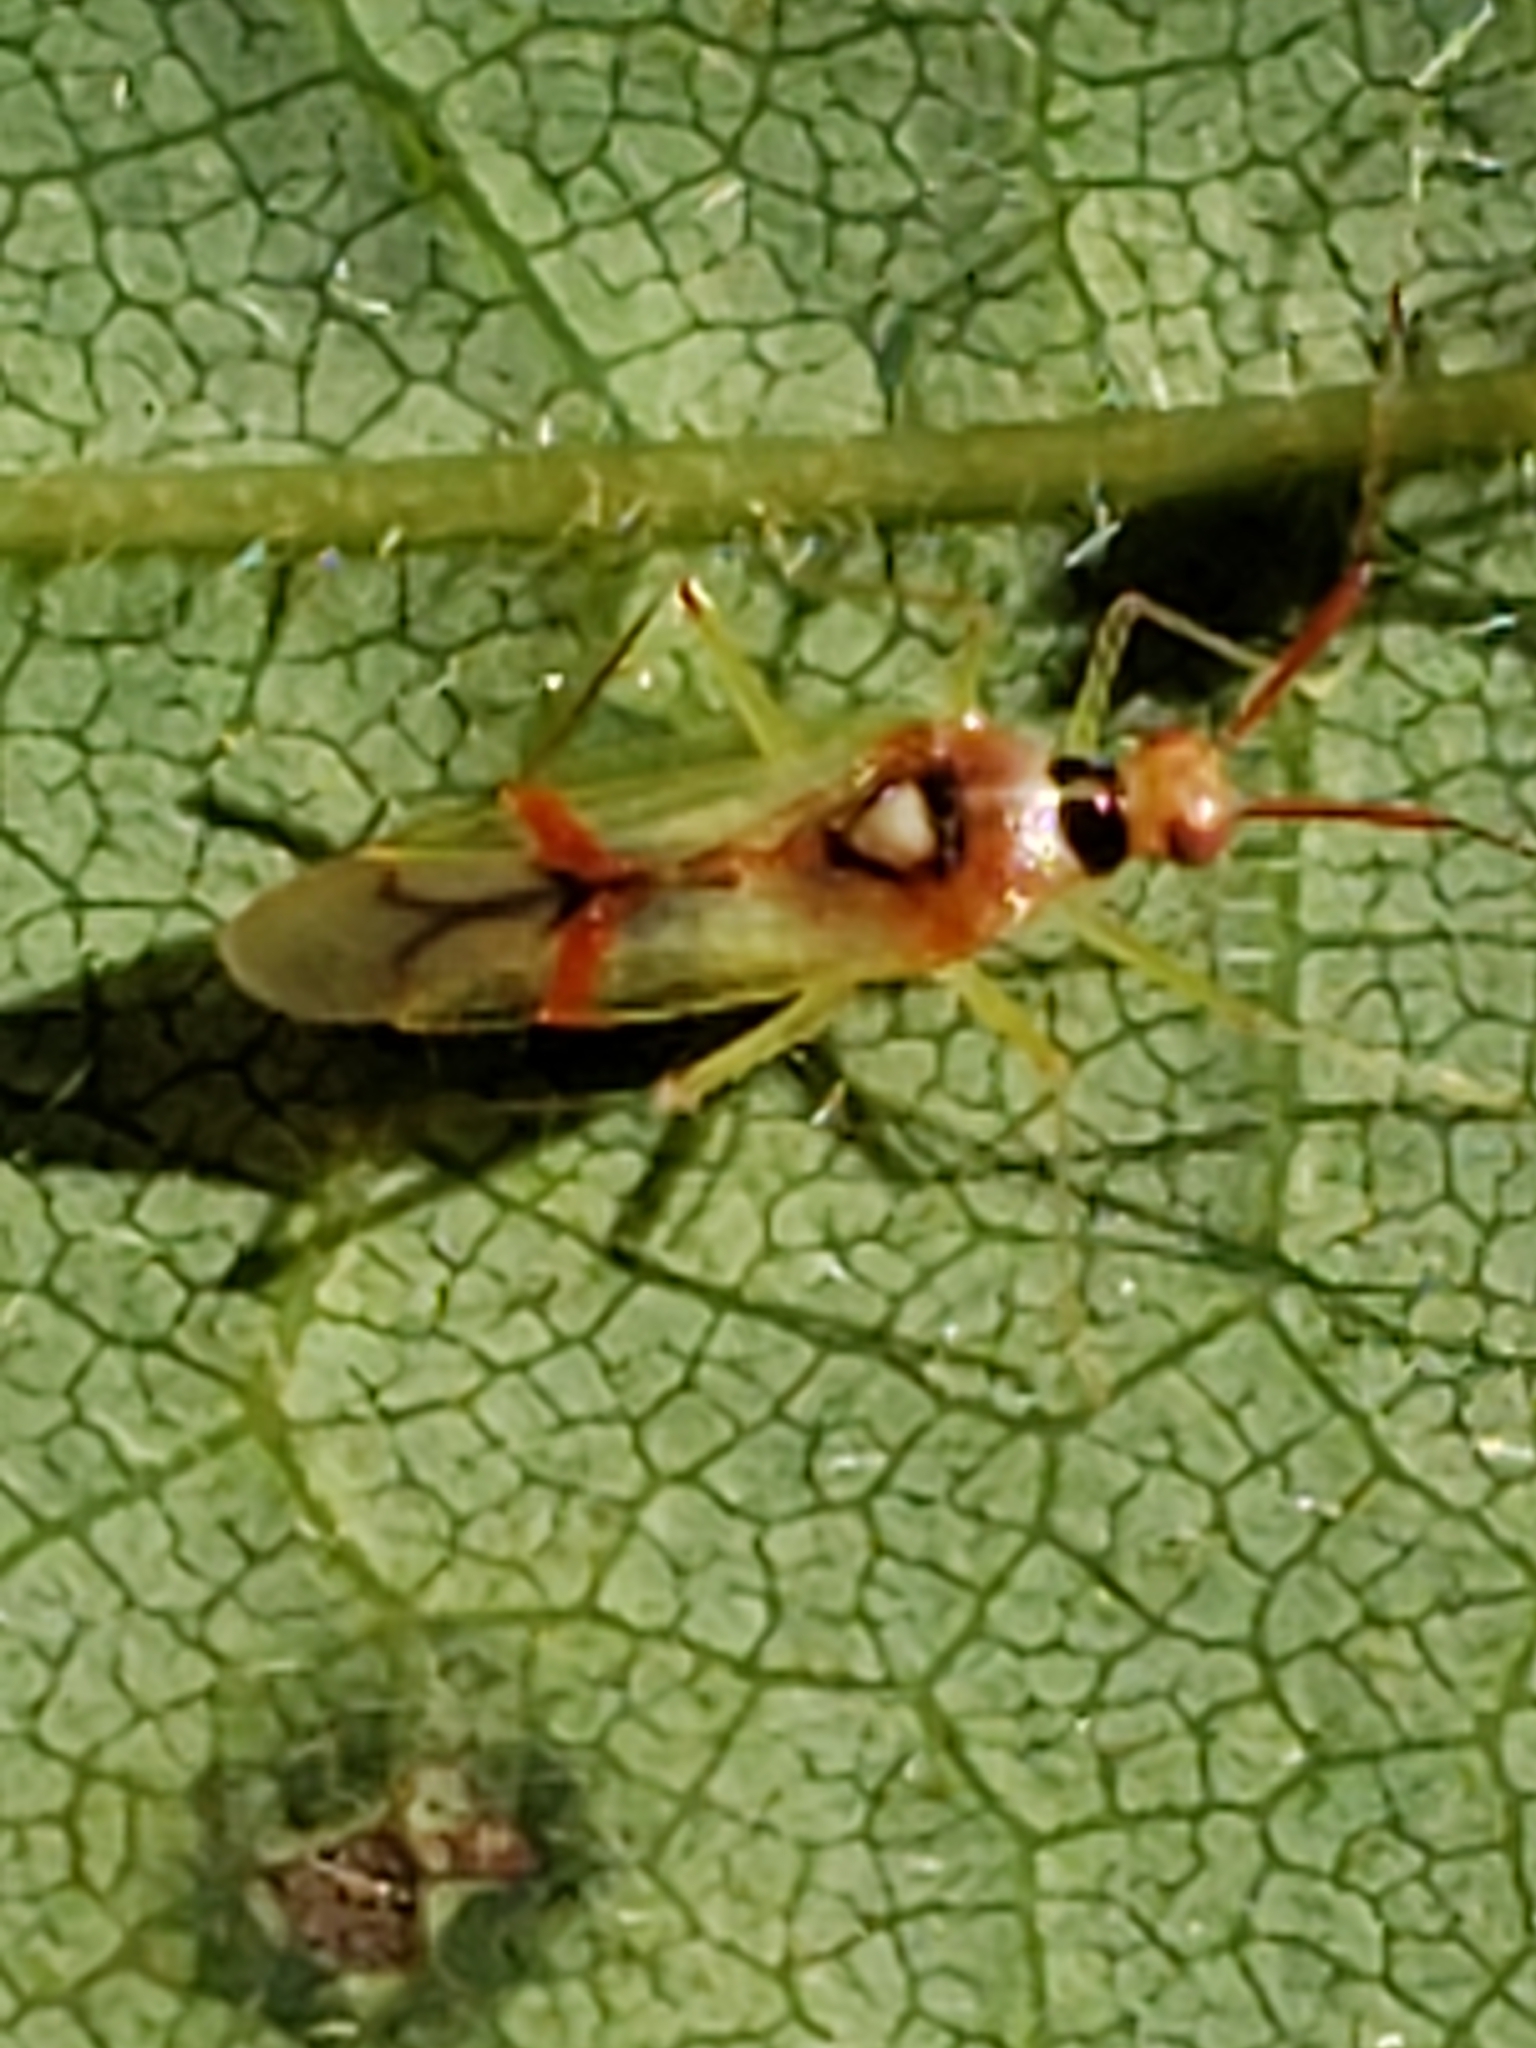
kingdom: Animalia
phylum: Arthropoda
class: Insecta
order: Hemiptera
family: Miridae
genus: Hyaliodes
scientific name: Hyaliodes harti
